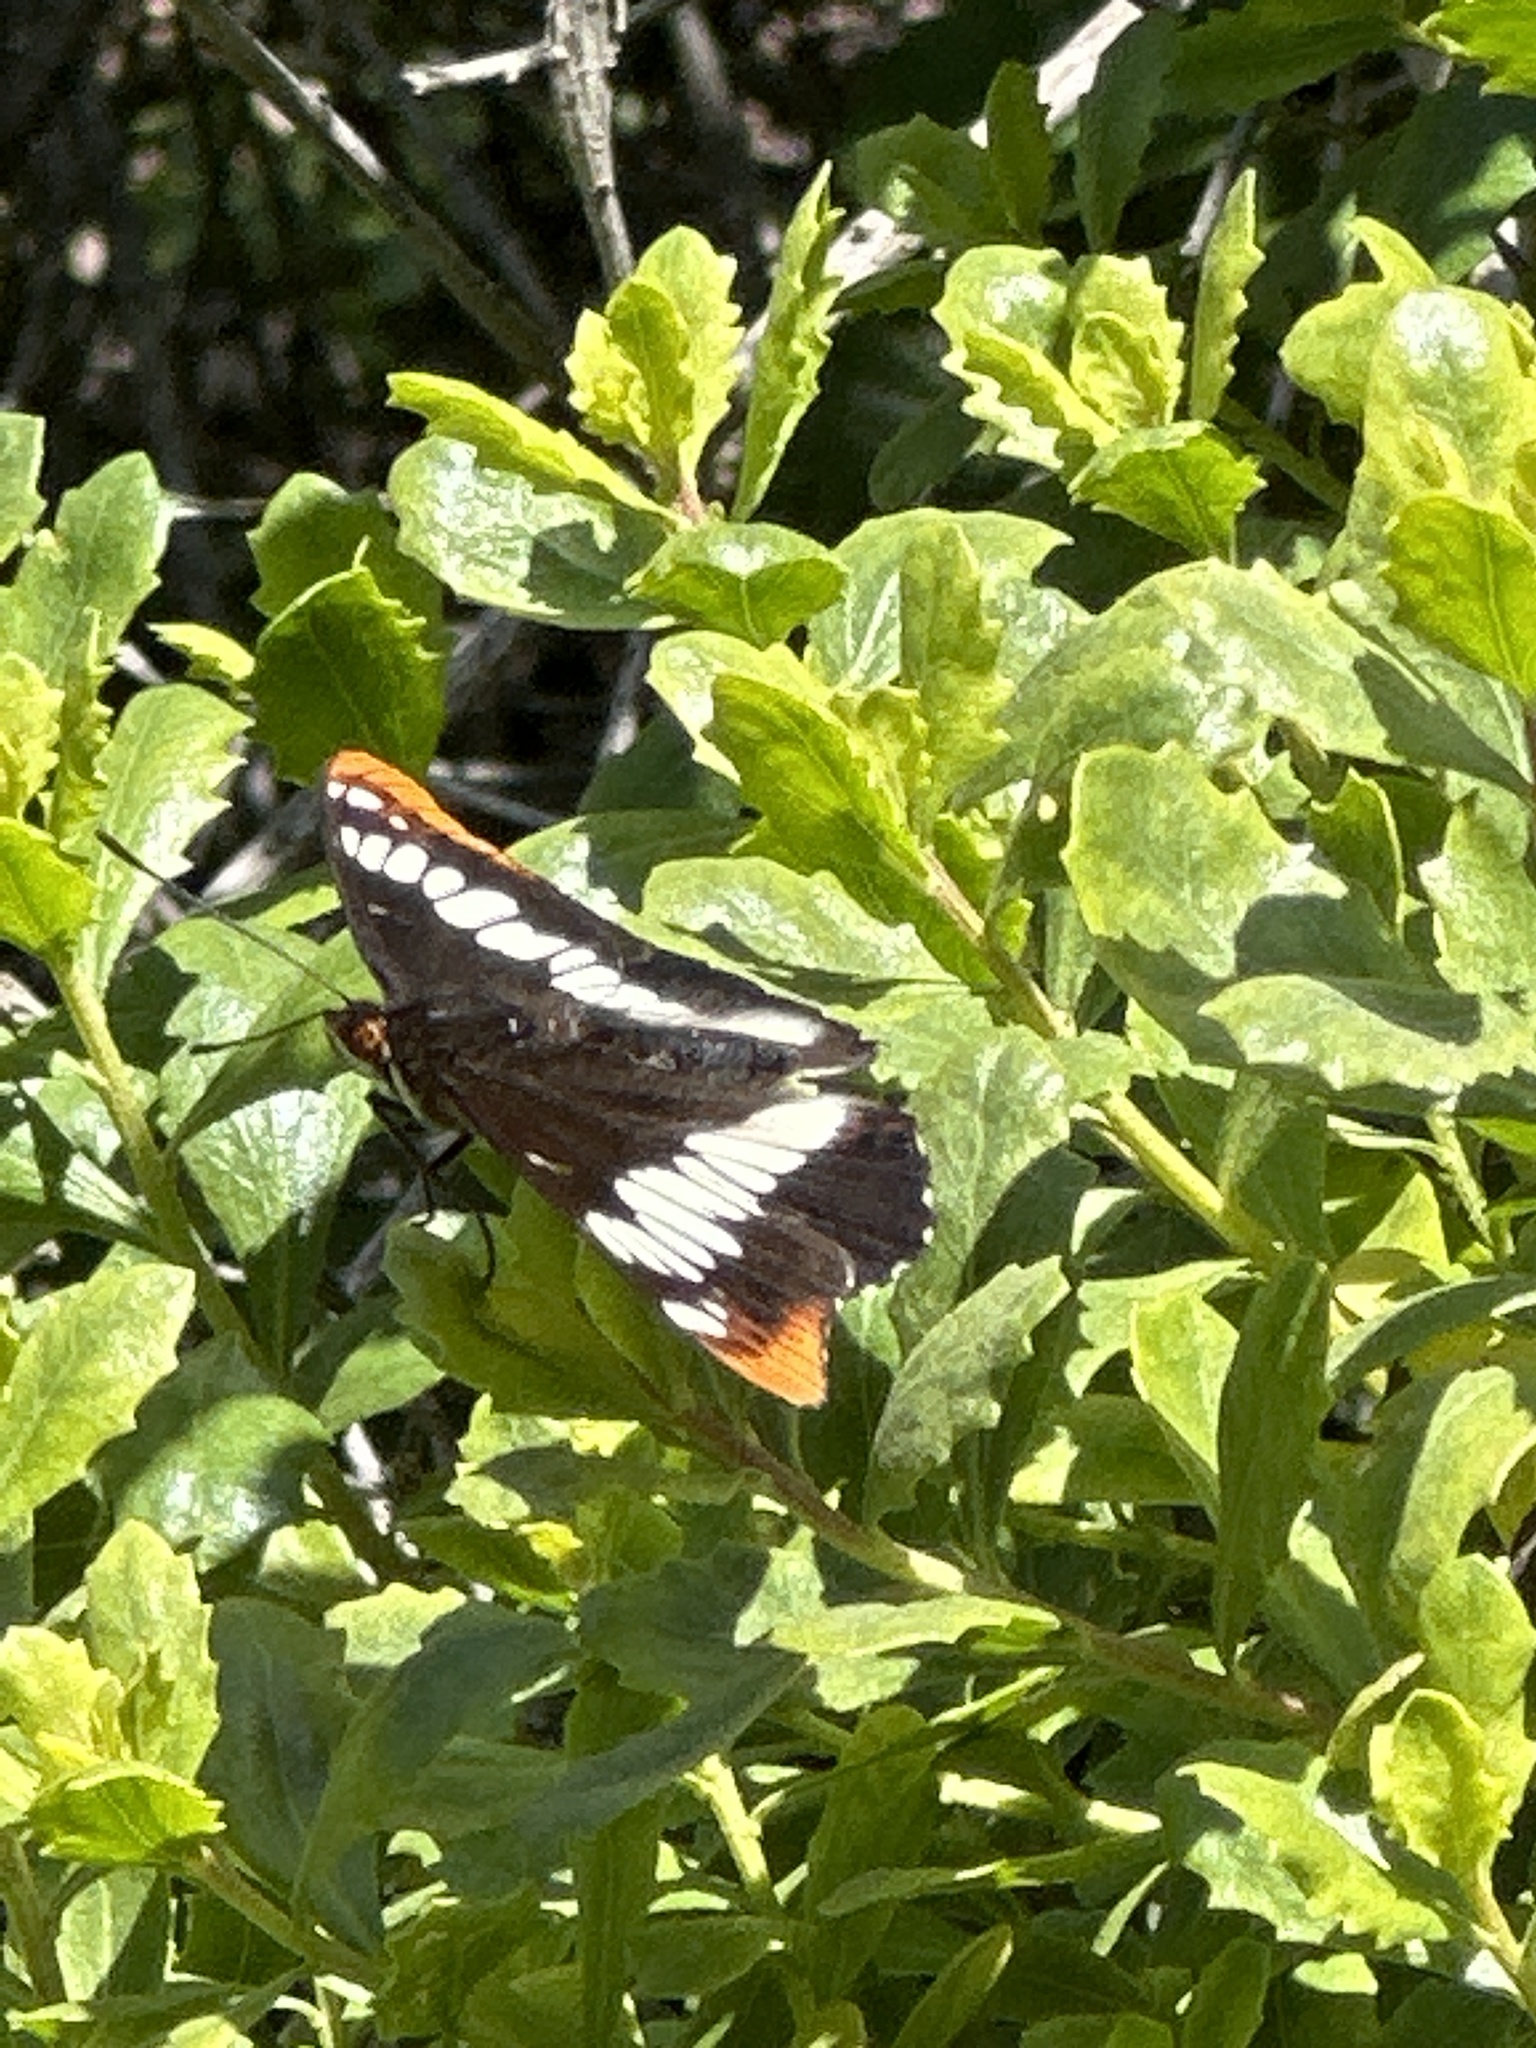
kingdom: Animalia
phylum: Arthropoda
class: Insecta
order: Lepidoptera
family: Nymphalidae
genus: Limenitis
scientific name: Limenitis lorquini
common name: Lorquin's admiral
